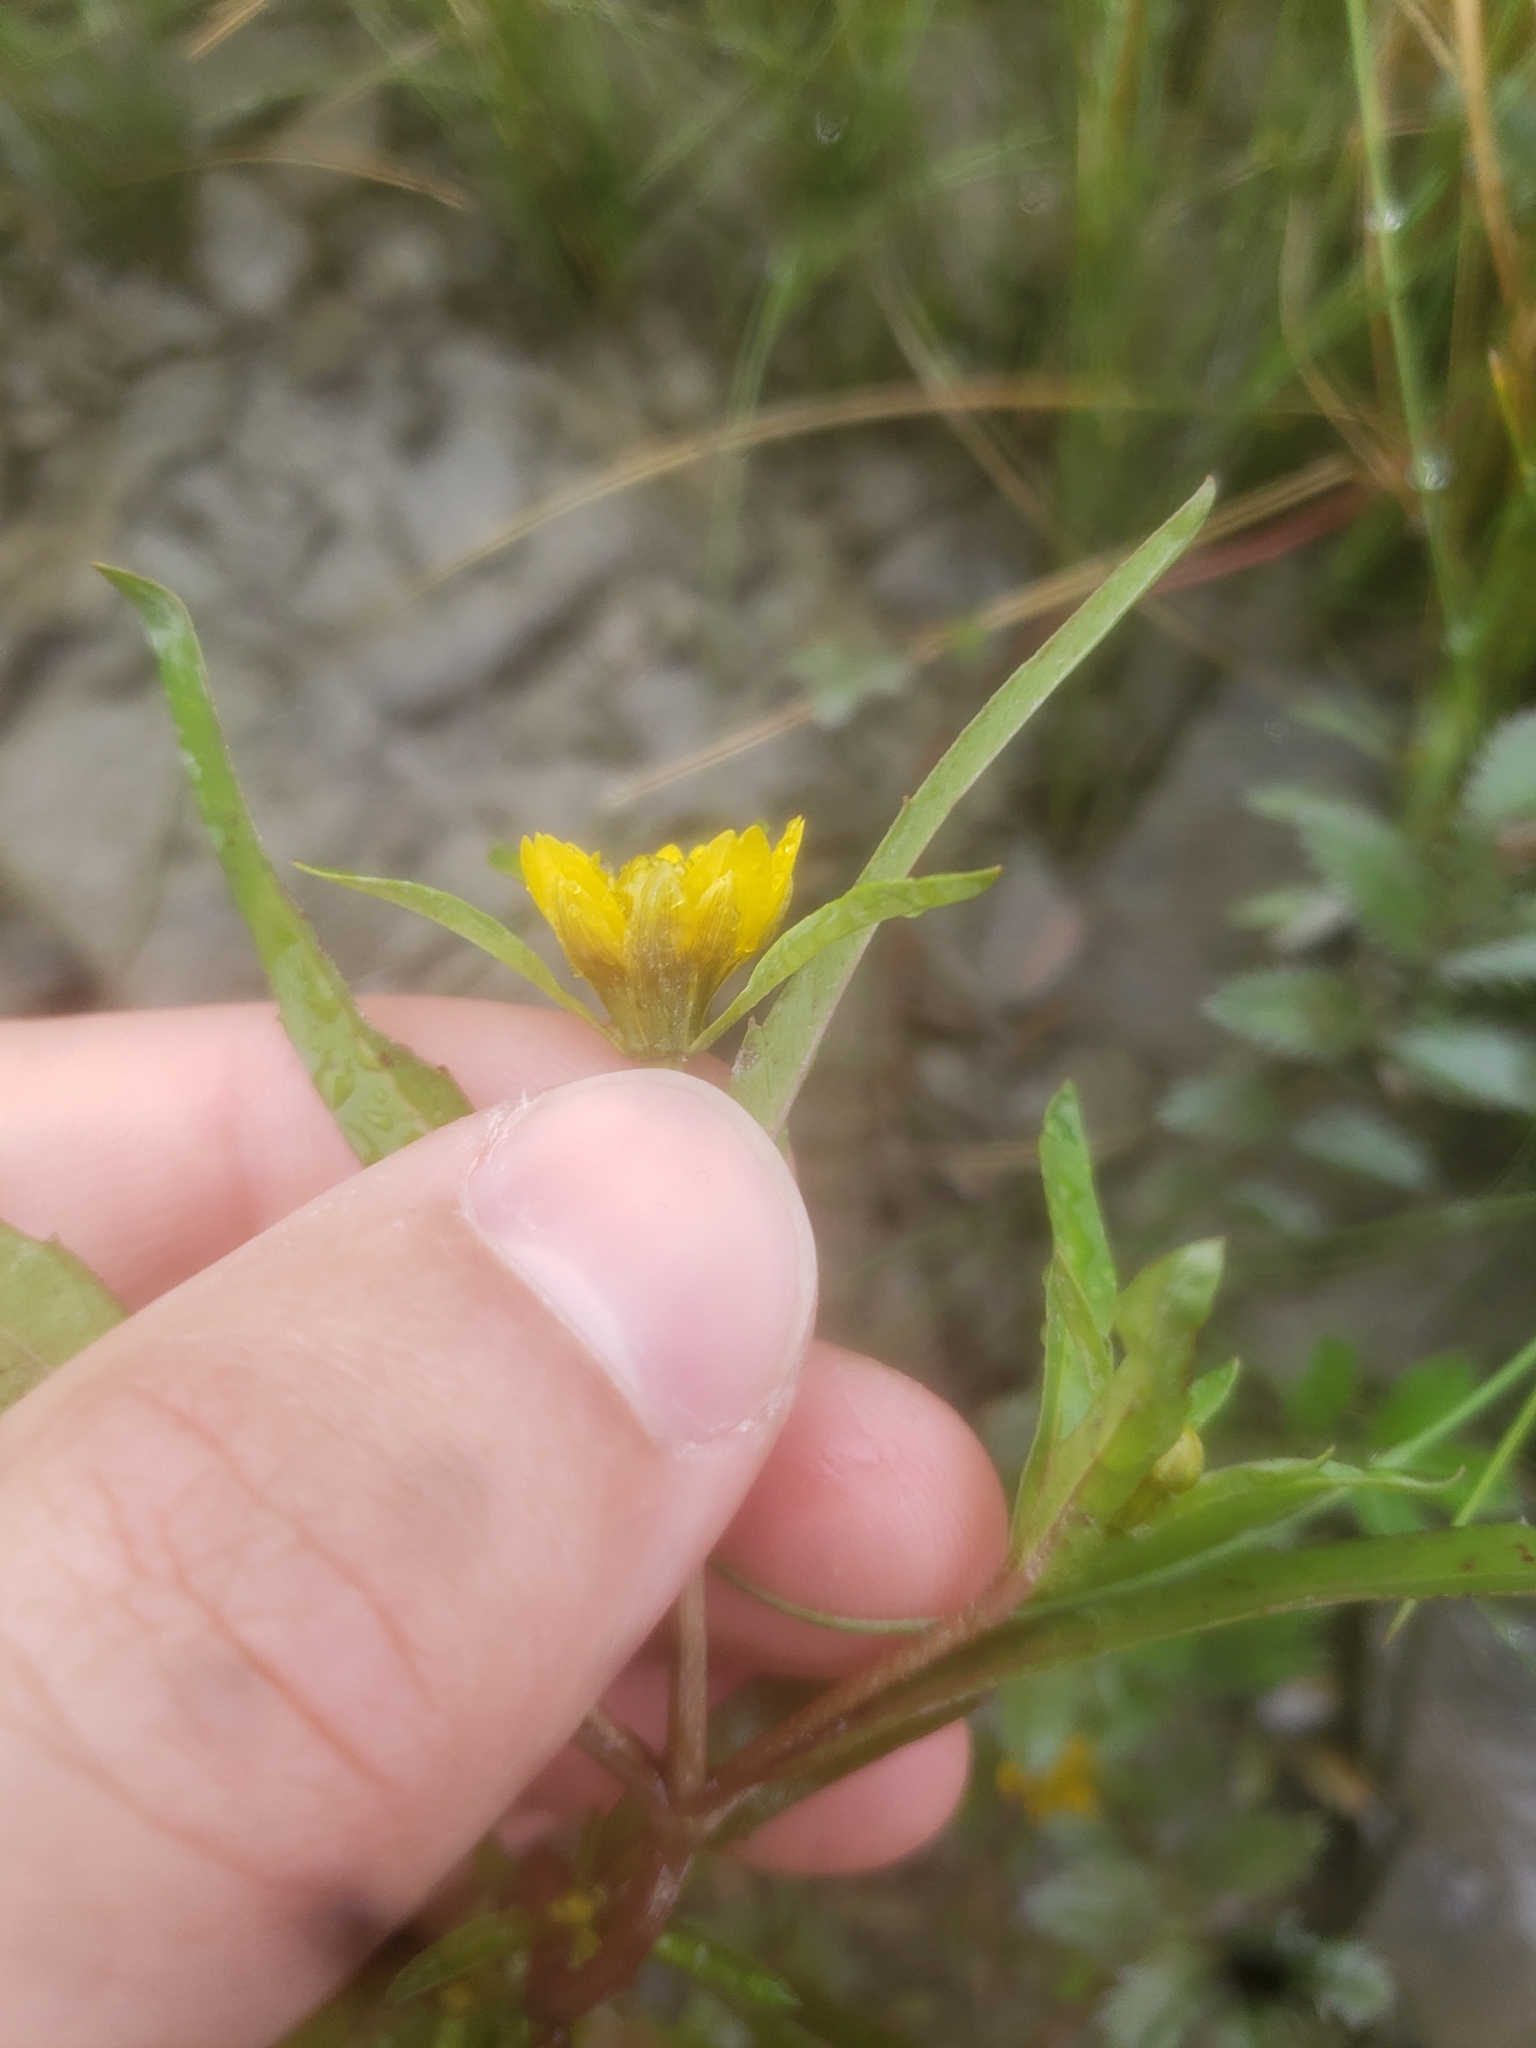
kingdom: Plantae
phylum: Tracheophyta
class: Magnoliopsida
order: Asterales
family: Asteraceae
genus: Bidens
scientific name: Bidens hyperborea
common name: Coastal beggarticks
